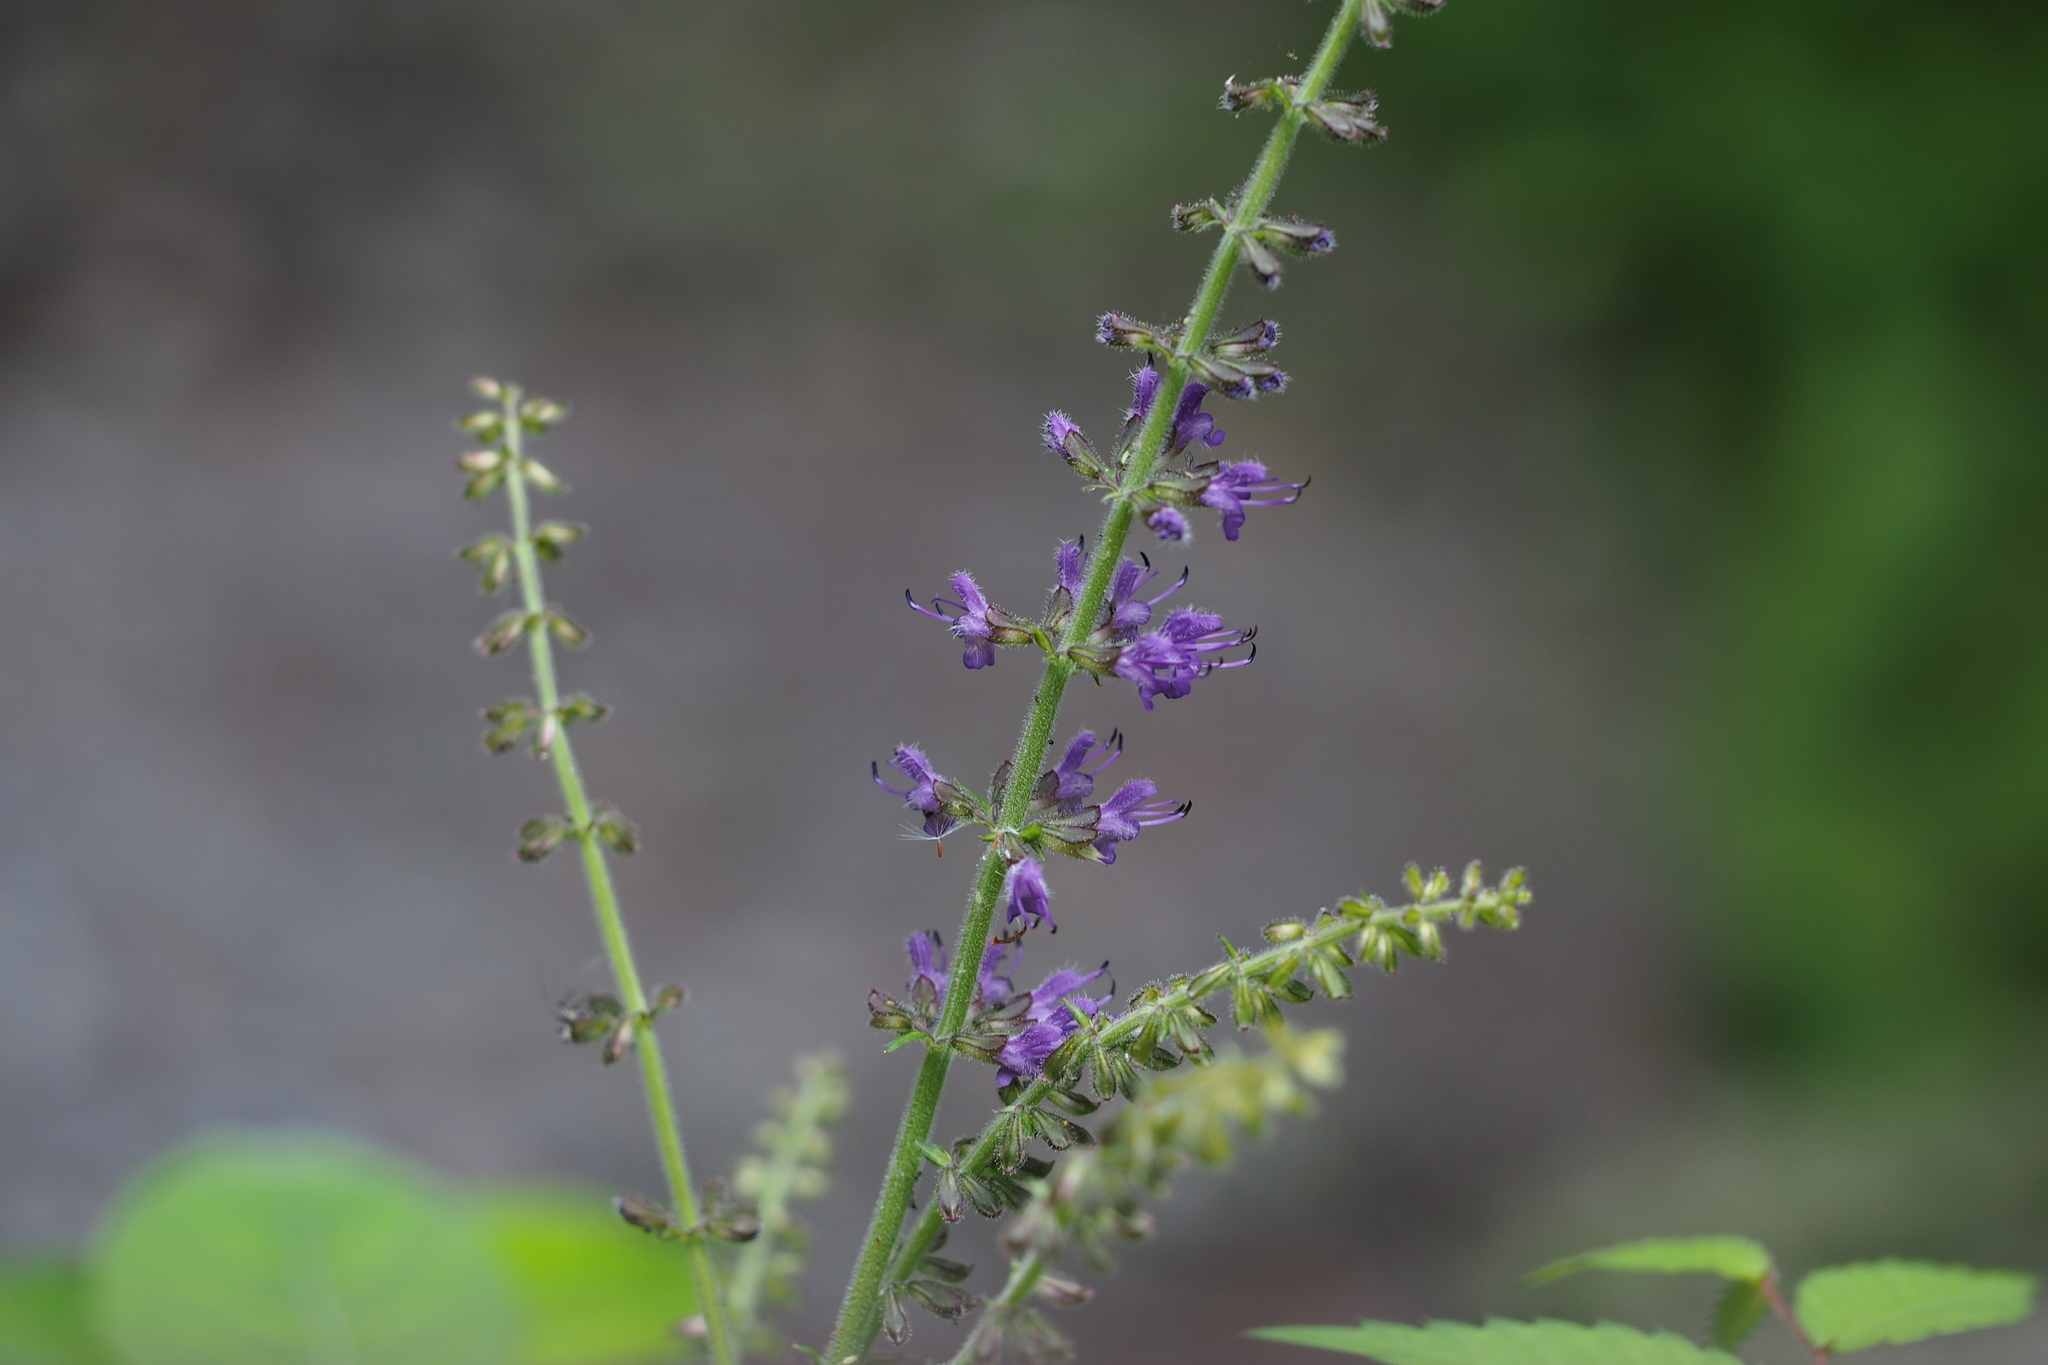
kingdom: Plantae
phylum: Tracheophyta
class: Magnoliopsida
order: Lamiales
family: Lamiaceae
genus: Salvia
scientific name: Salvia lutescens
